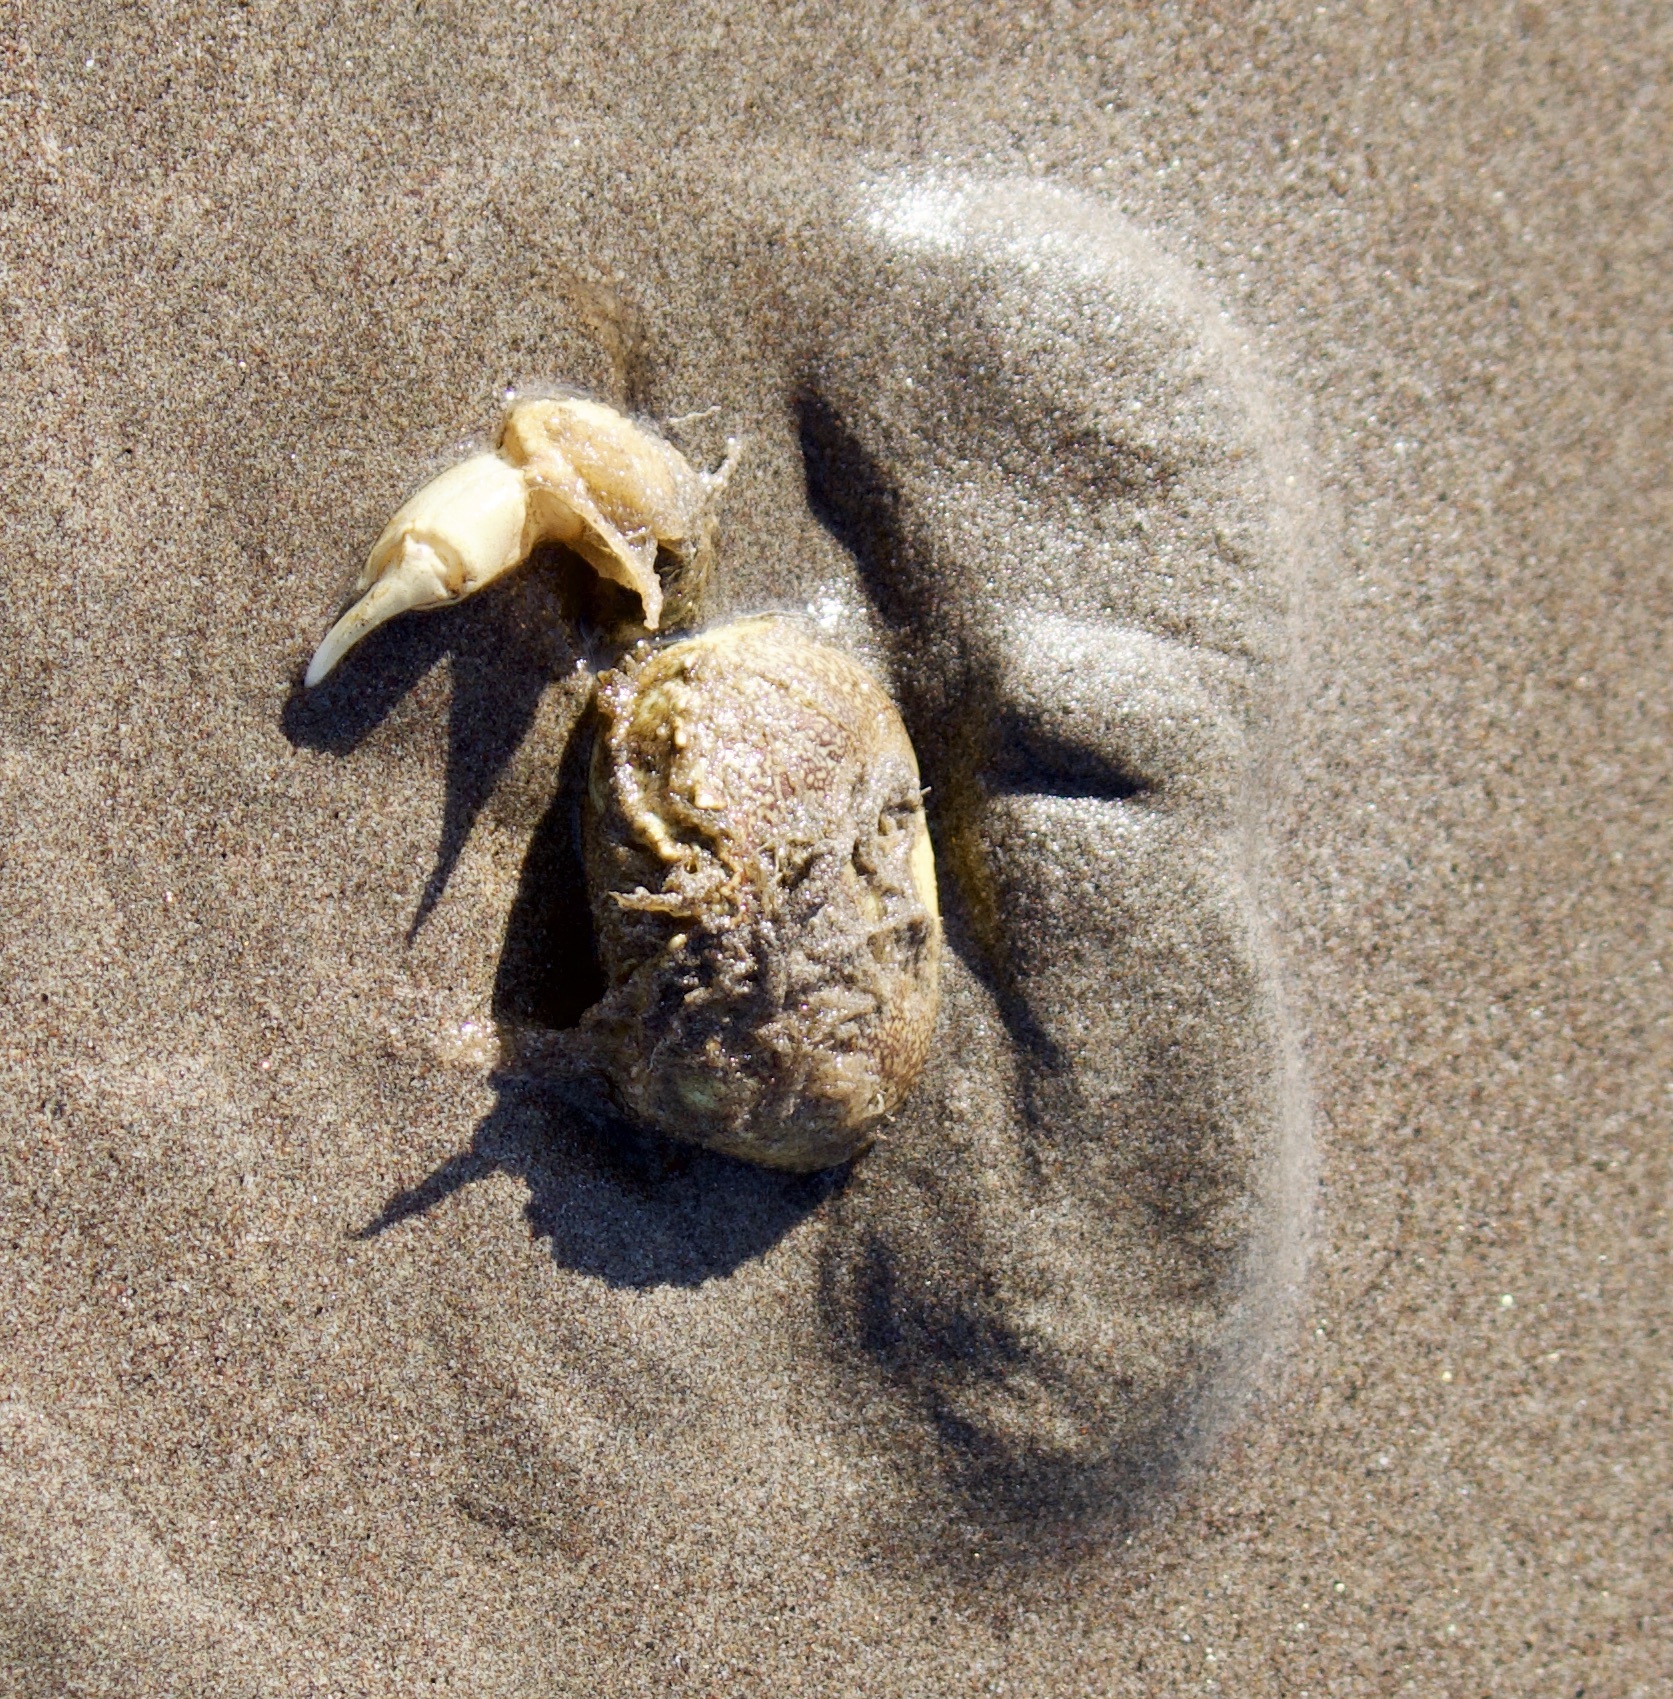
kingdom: Animalia
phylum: Arthropoda
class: Malacostraca
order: Decapoda
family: Belliidae
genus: Bellia
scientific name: Bellia picta
